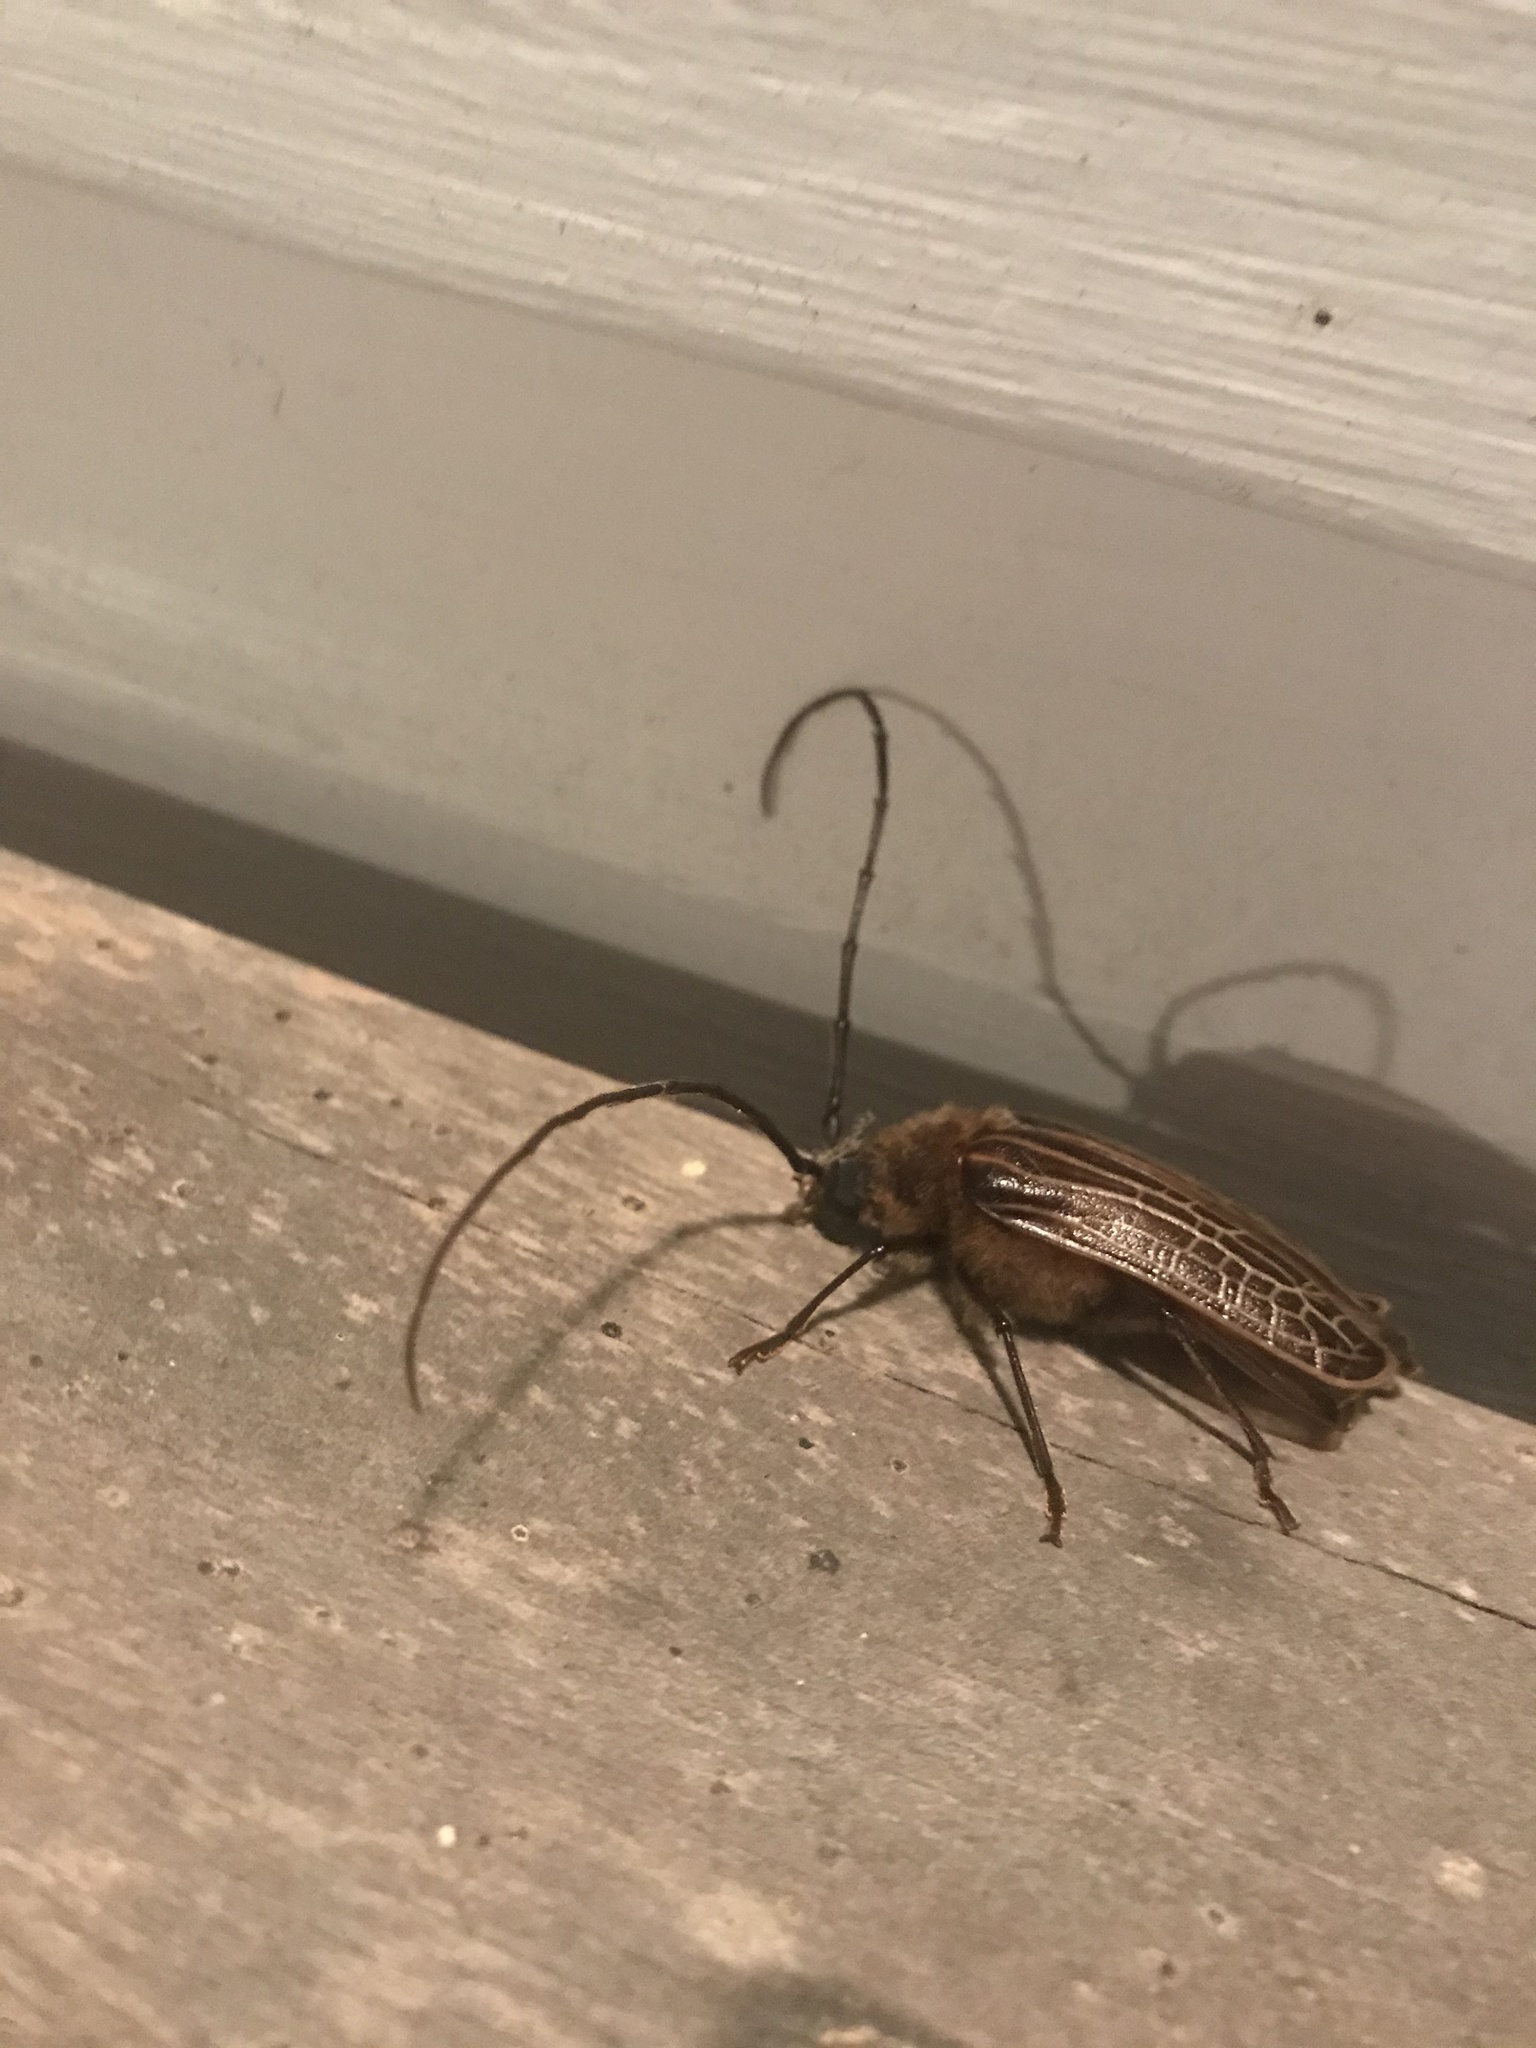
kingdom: Animalia
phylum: Arthropoda
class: Insecta
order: Coleoptera
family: Cerambycidae
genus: Prionoplus
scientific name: Prionoplus reticularis
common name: Huhu beetle
